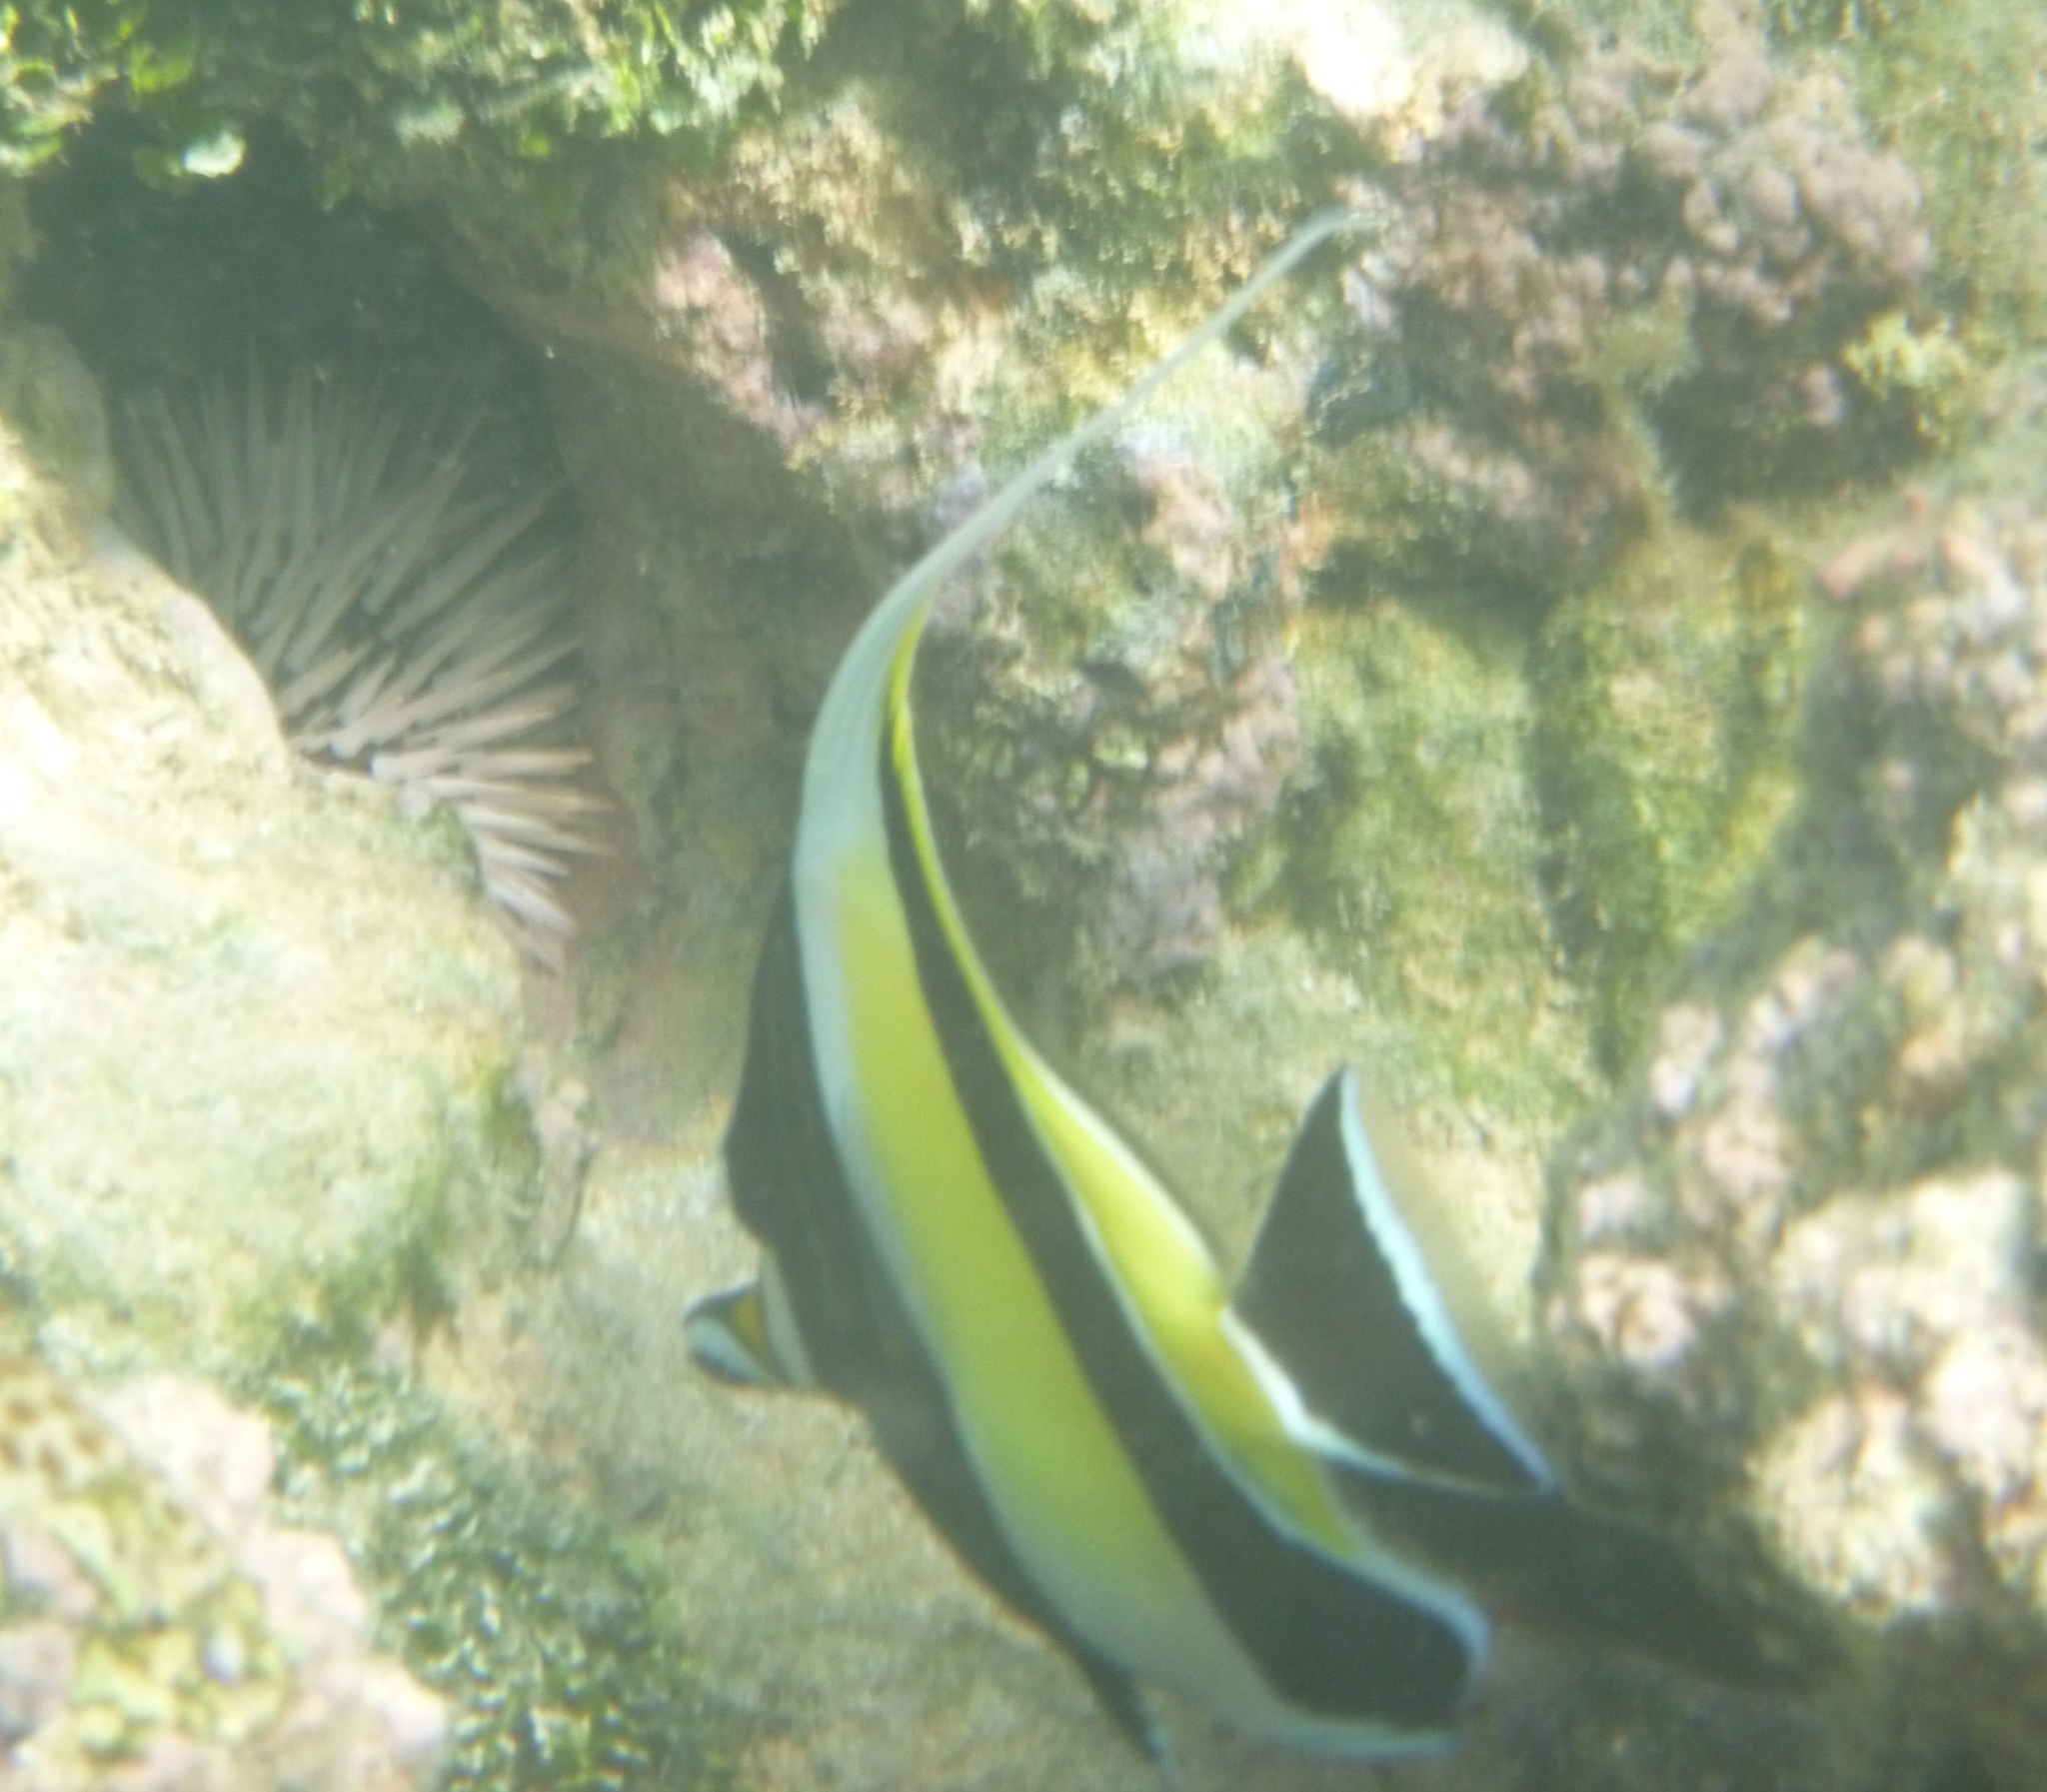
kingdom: Animalia
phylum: Chordata
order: Perciformes
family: Zanclidae
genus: Zanclus
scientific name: Zanclus cornutus
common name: Moorish idol
